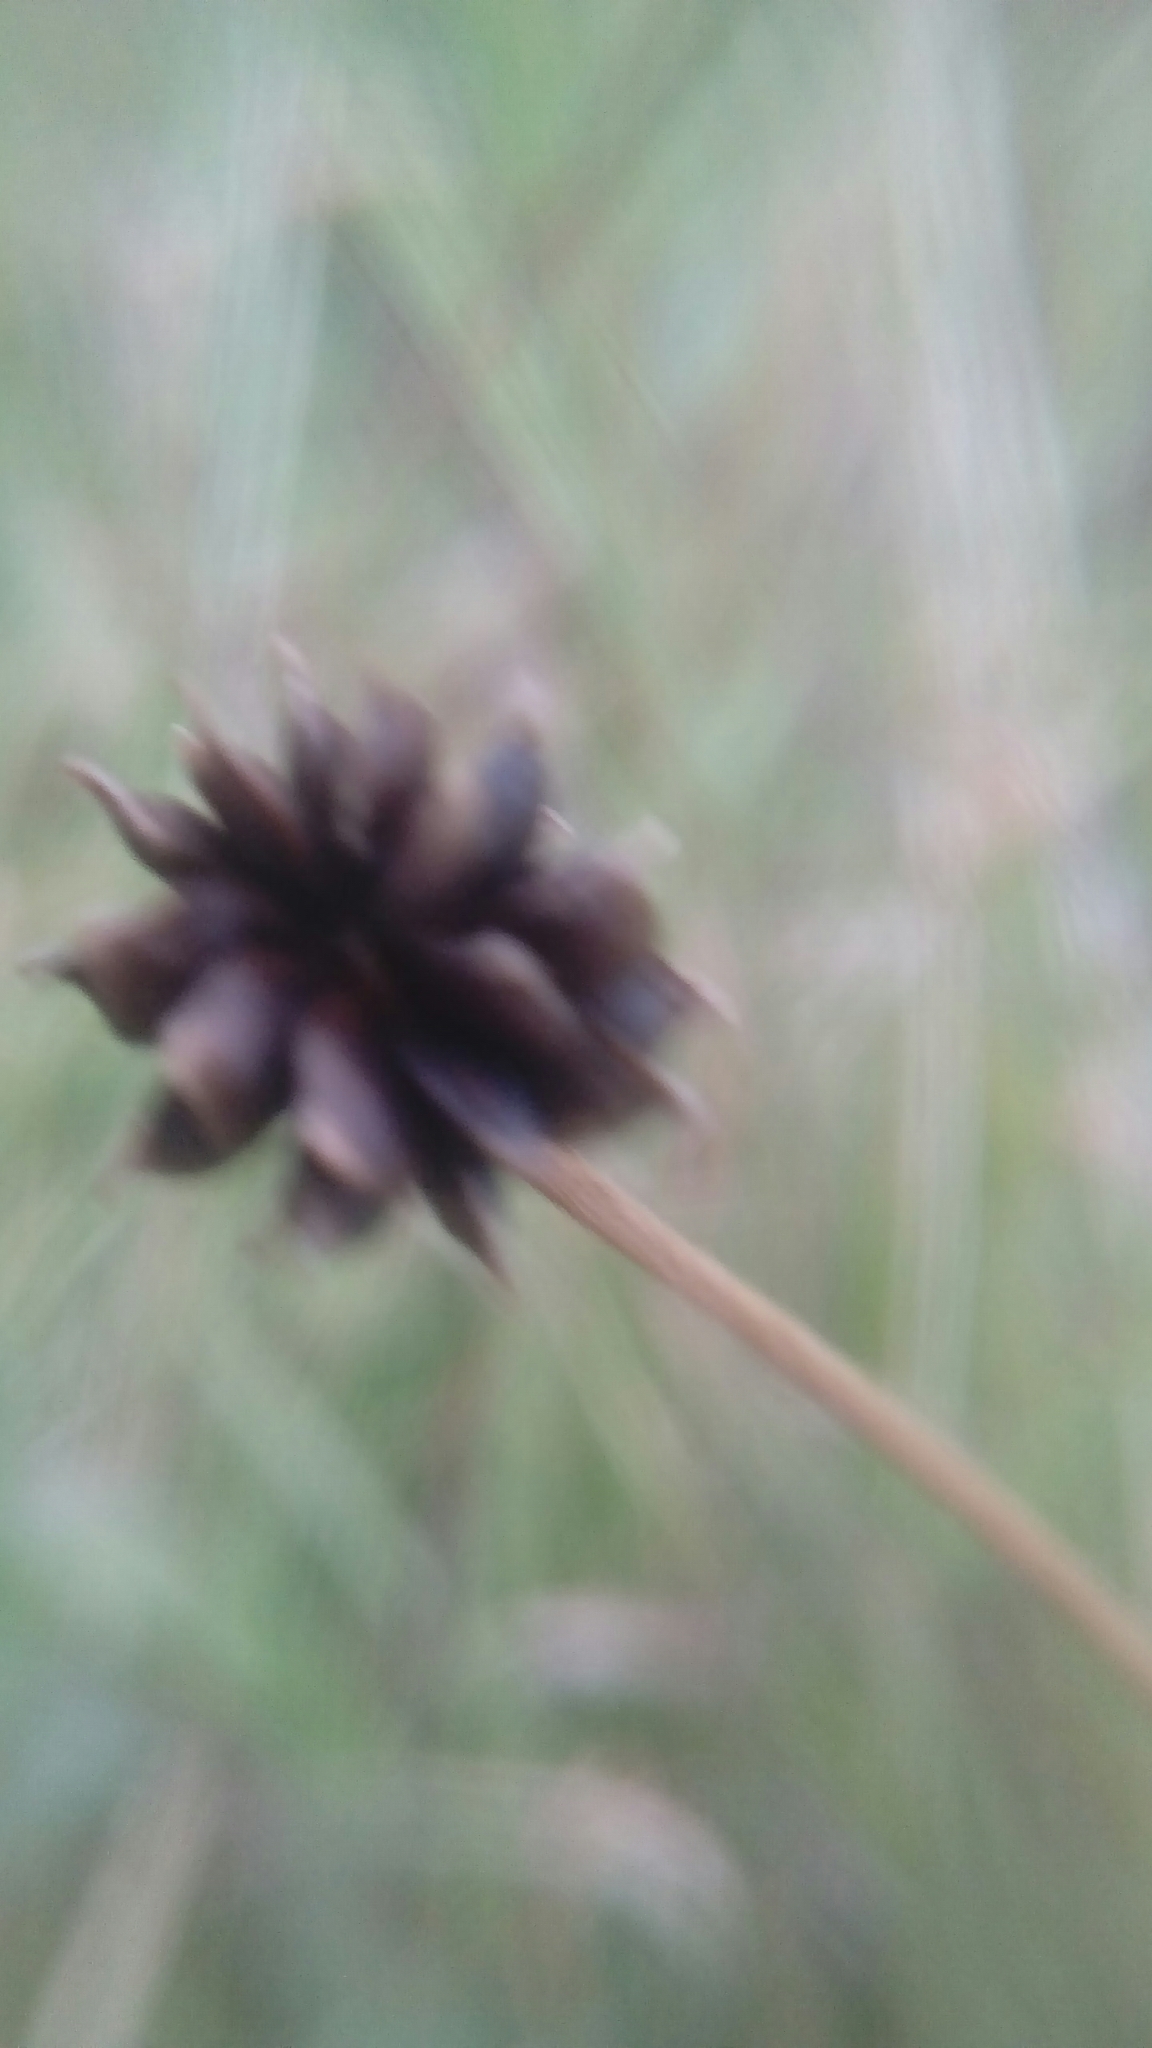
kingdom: Plantae
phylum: Tracheophyta
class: Magnoliopsida
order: Ranunculales
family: Ranunculaceae
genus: Ranunculus
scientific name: Ranunculus acris
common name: Meadow buttercup
